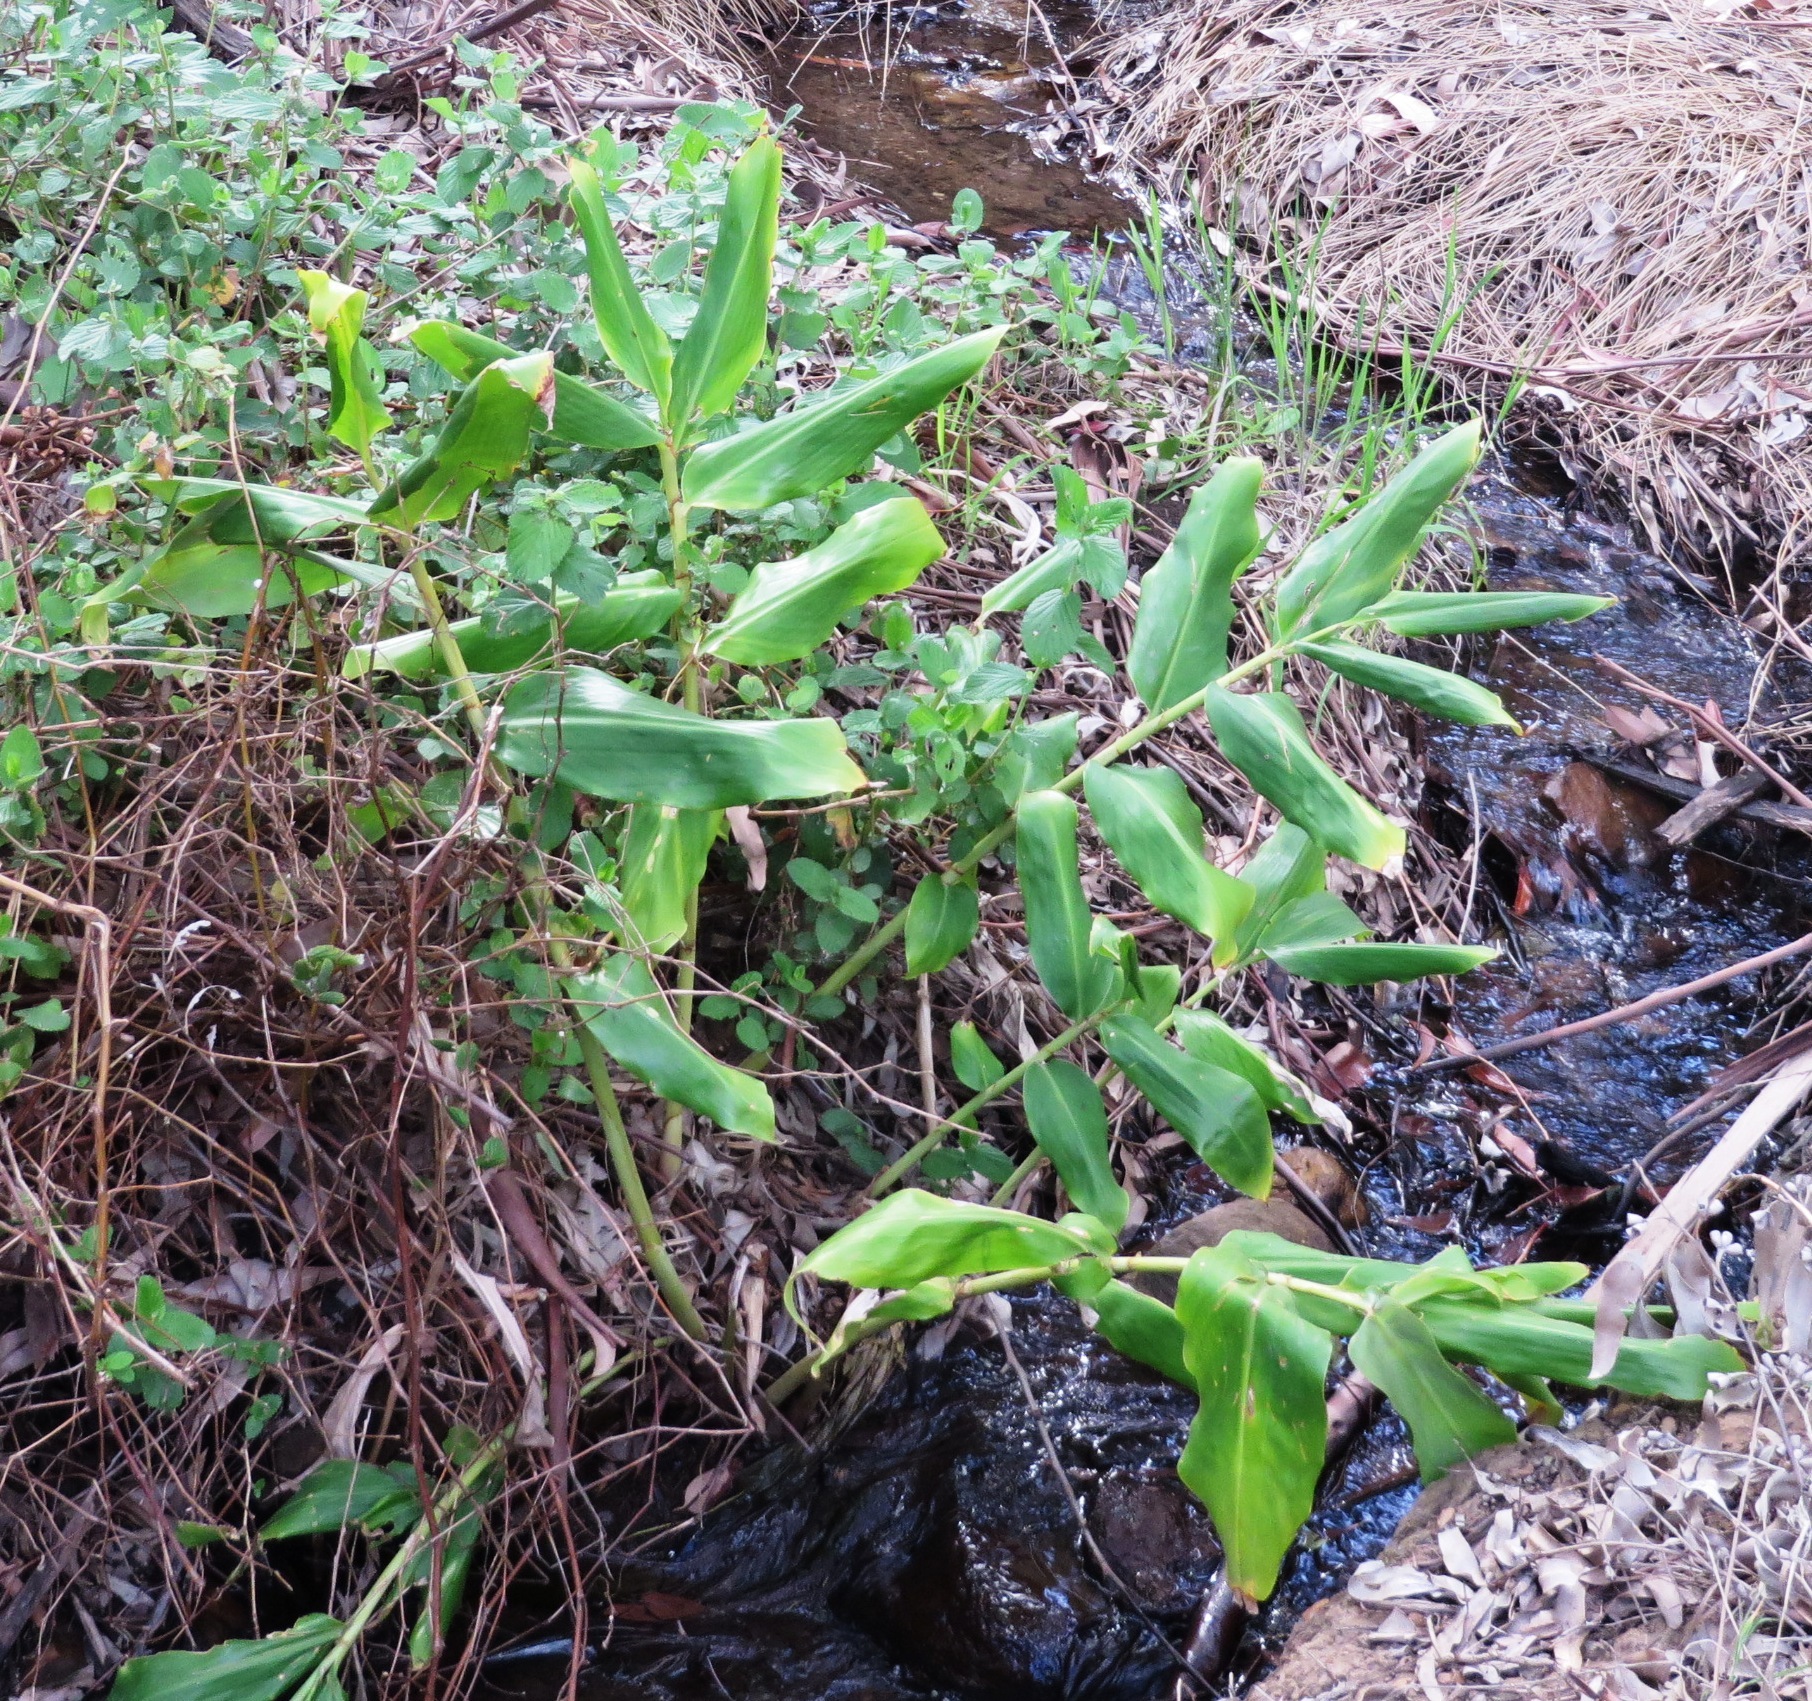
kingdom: Plantae
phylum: Tracheophyta
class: Liliopsida
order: Zingiberales
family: Zingiberaceae
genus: Hedychium
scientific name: Hedychium gardnerianum
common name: Himalayan ginger
